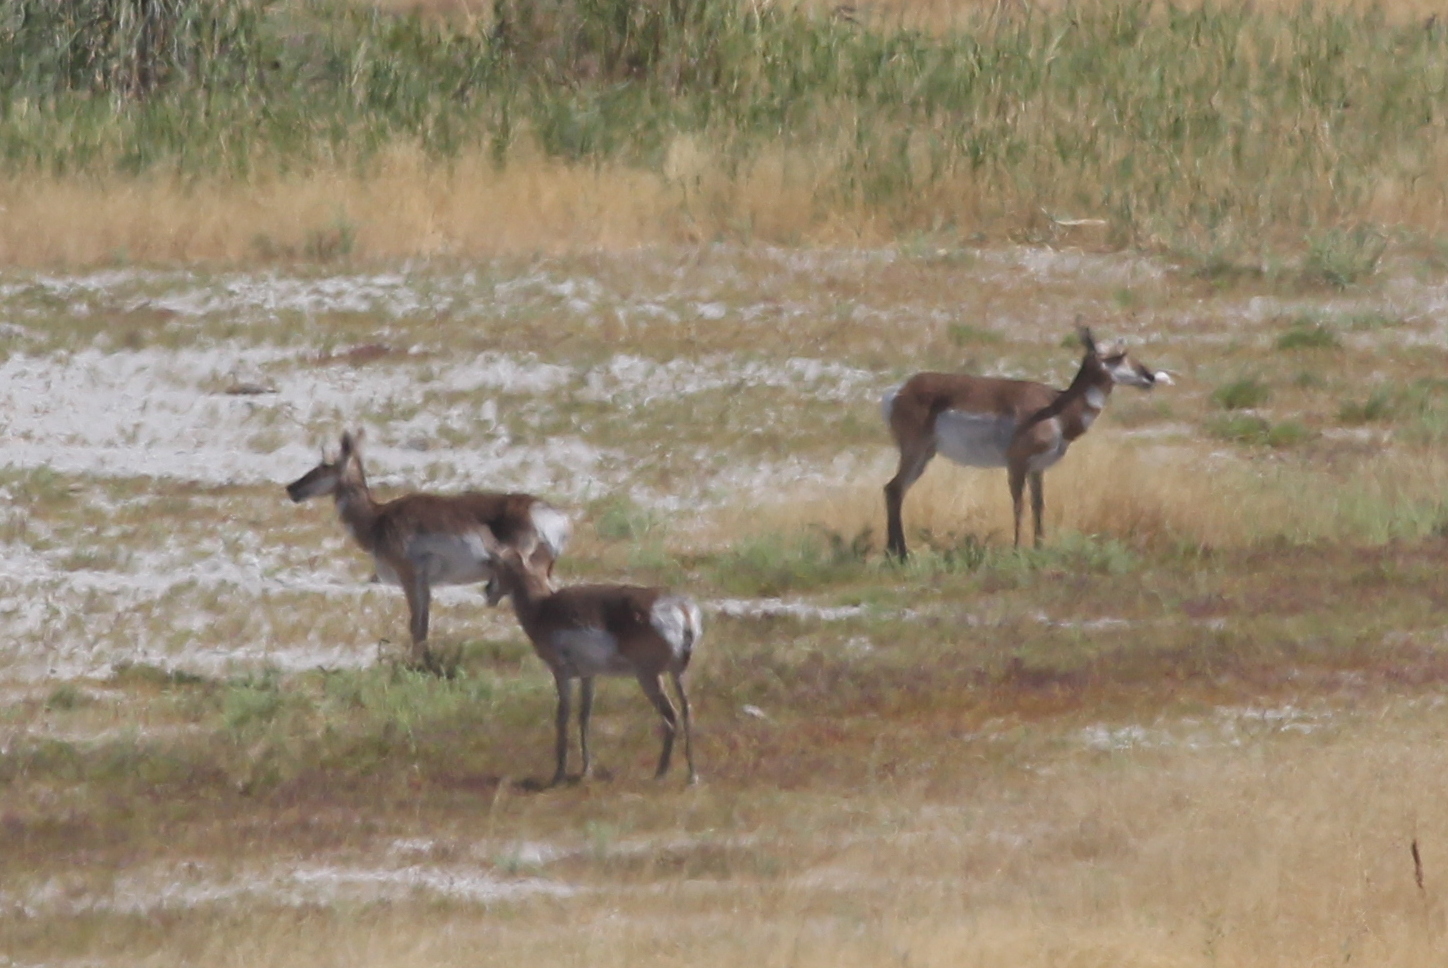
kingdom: Animalia
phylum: Chordata
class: Mammalia
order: Artiodactyla
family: Antilocapridae
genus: Antilocapra
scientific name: Antilocapra americana
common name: Pronghorn
